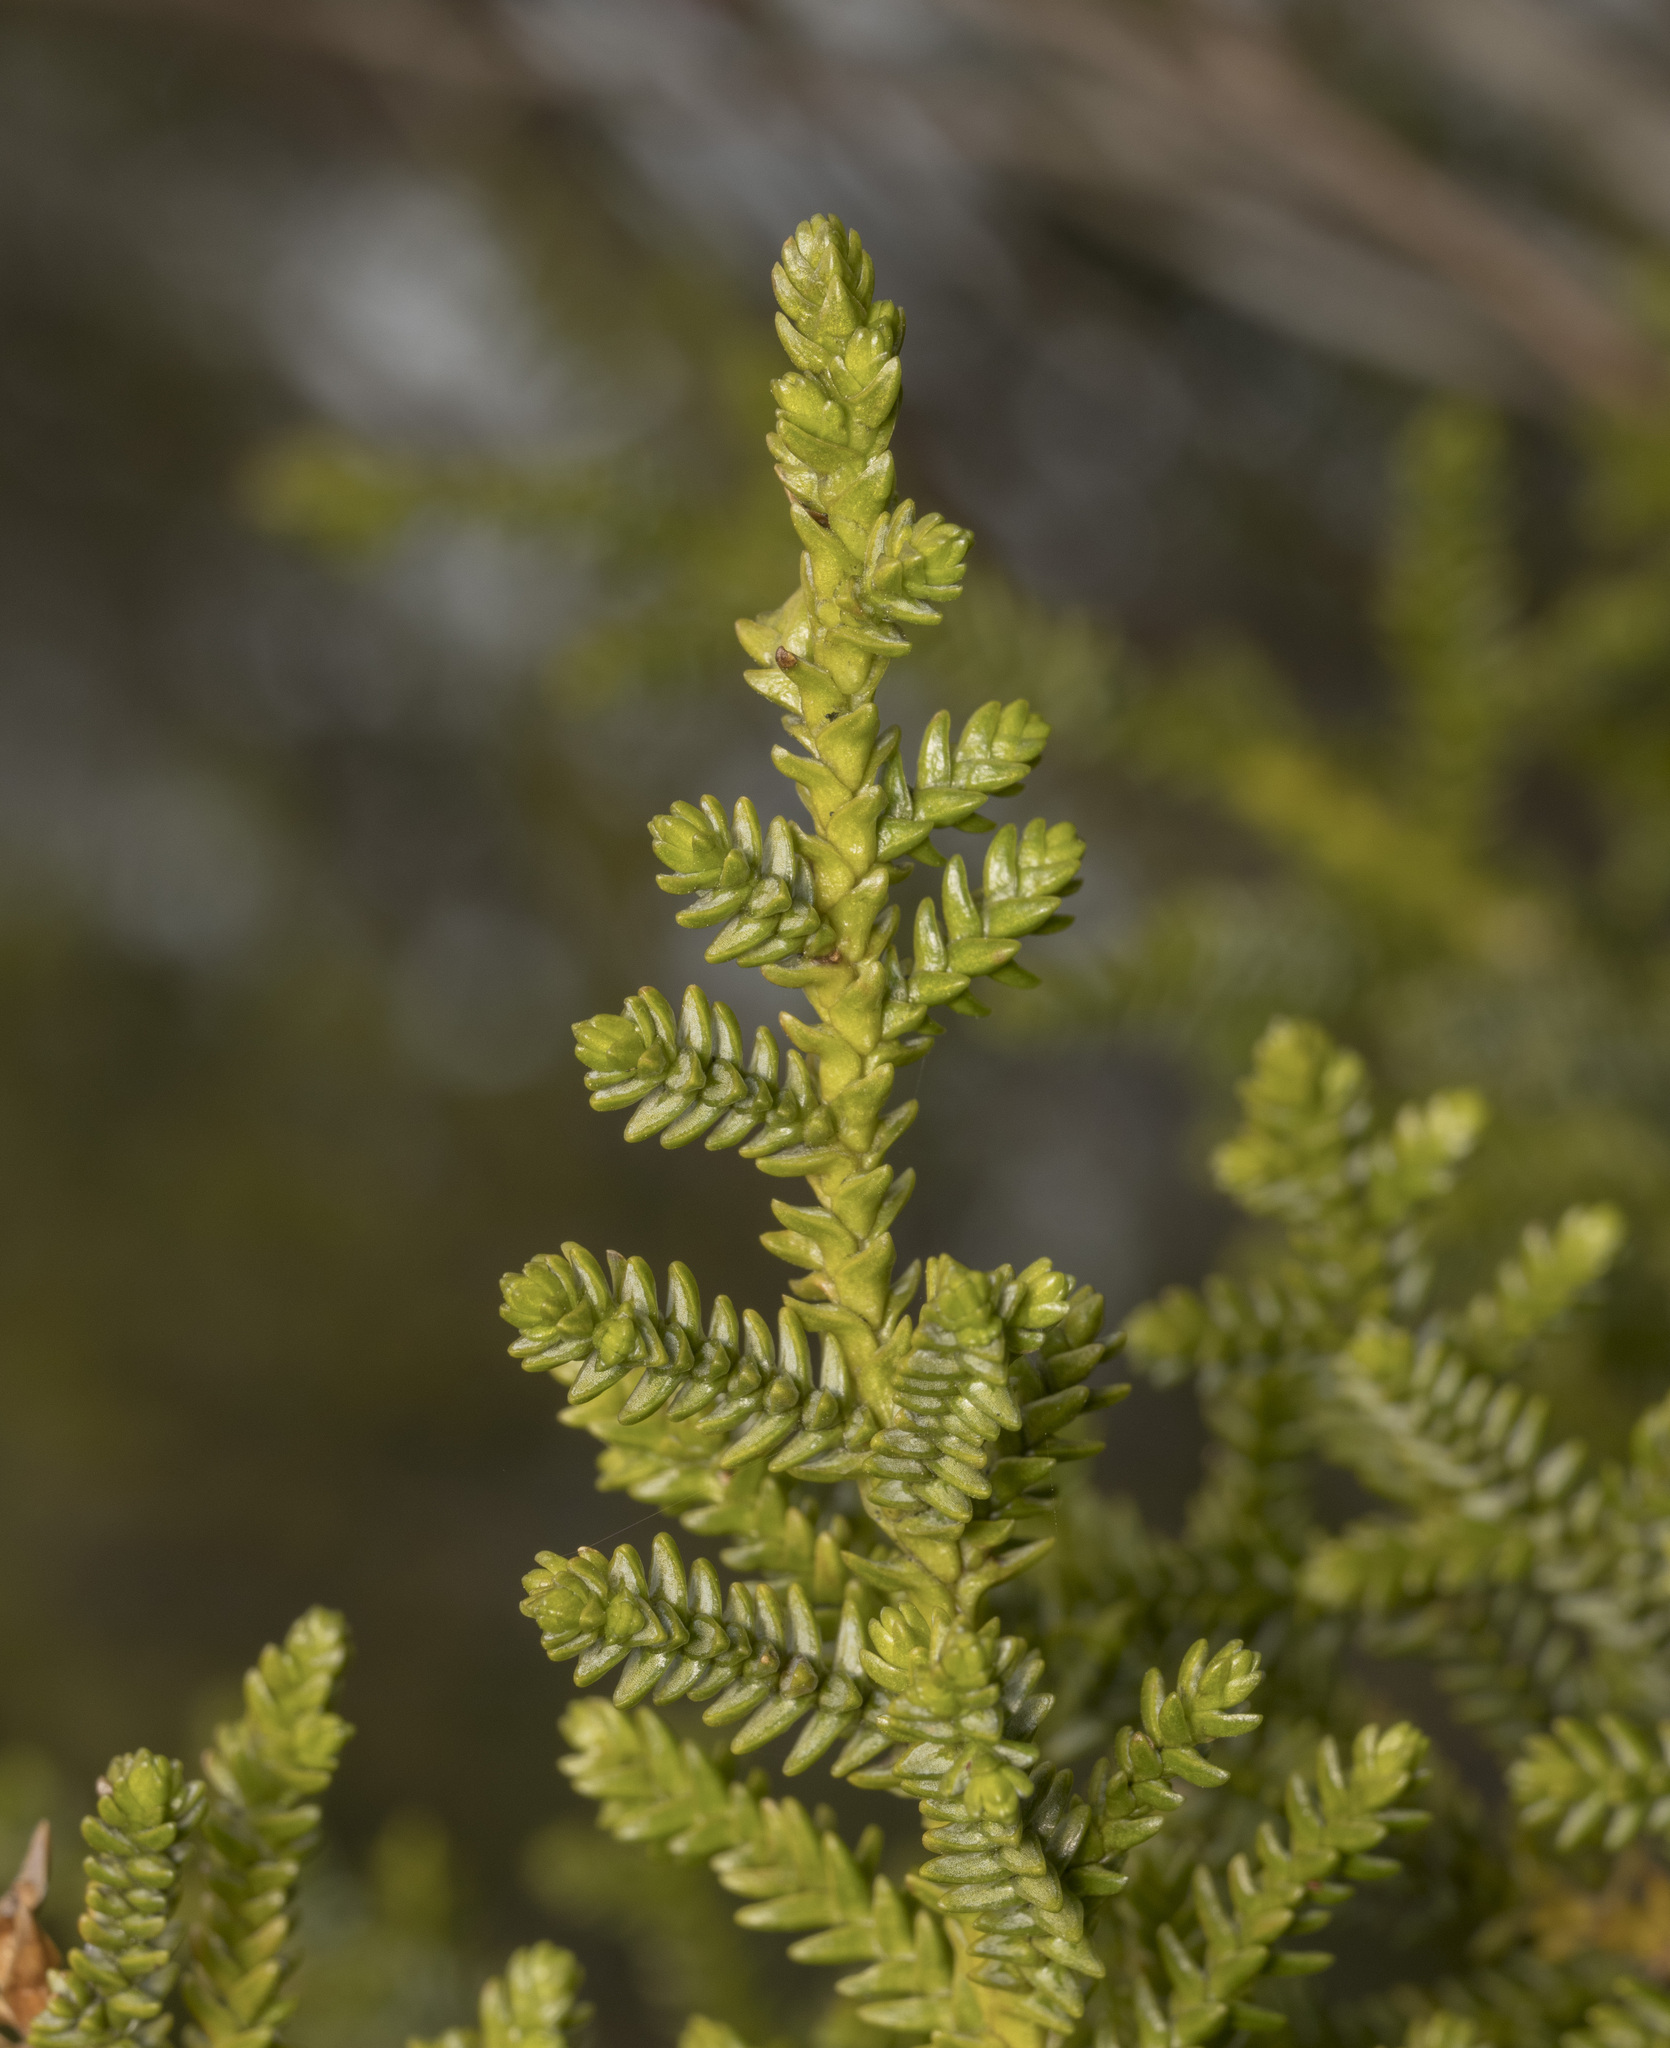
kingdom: Plantae
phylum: Tracheophyta
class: Pinopsida
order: Pinales
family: Cupressaceae
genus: Pilgerodendron
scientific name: Pilgerodendron uviferum
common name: Guaitecas cypress
